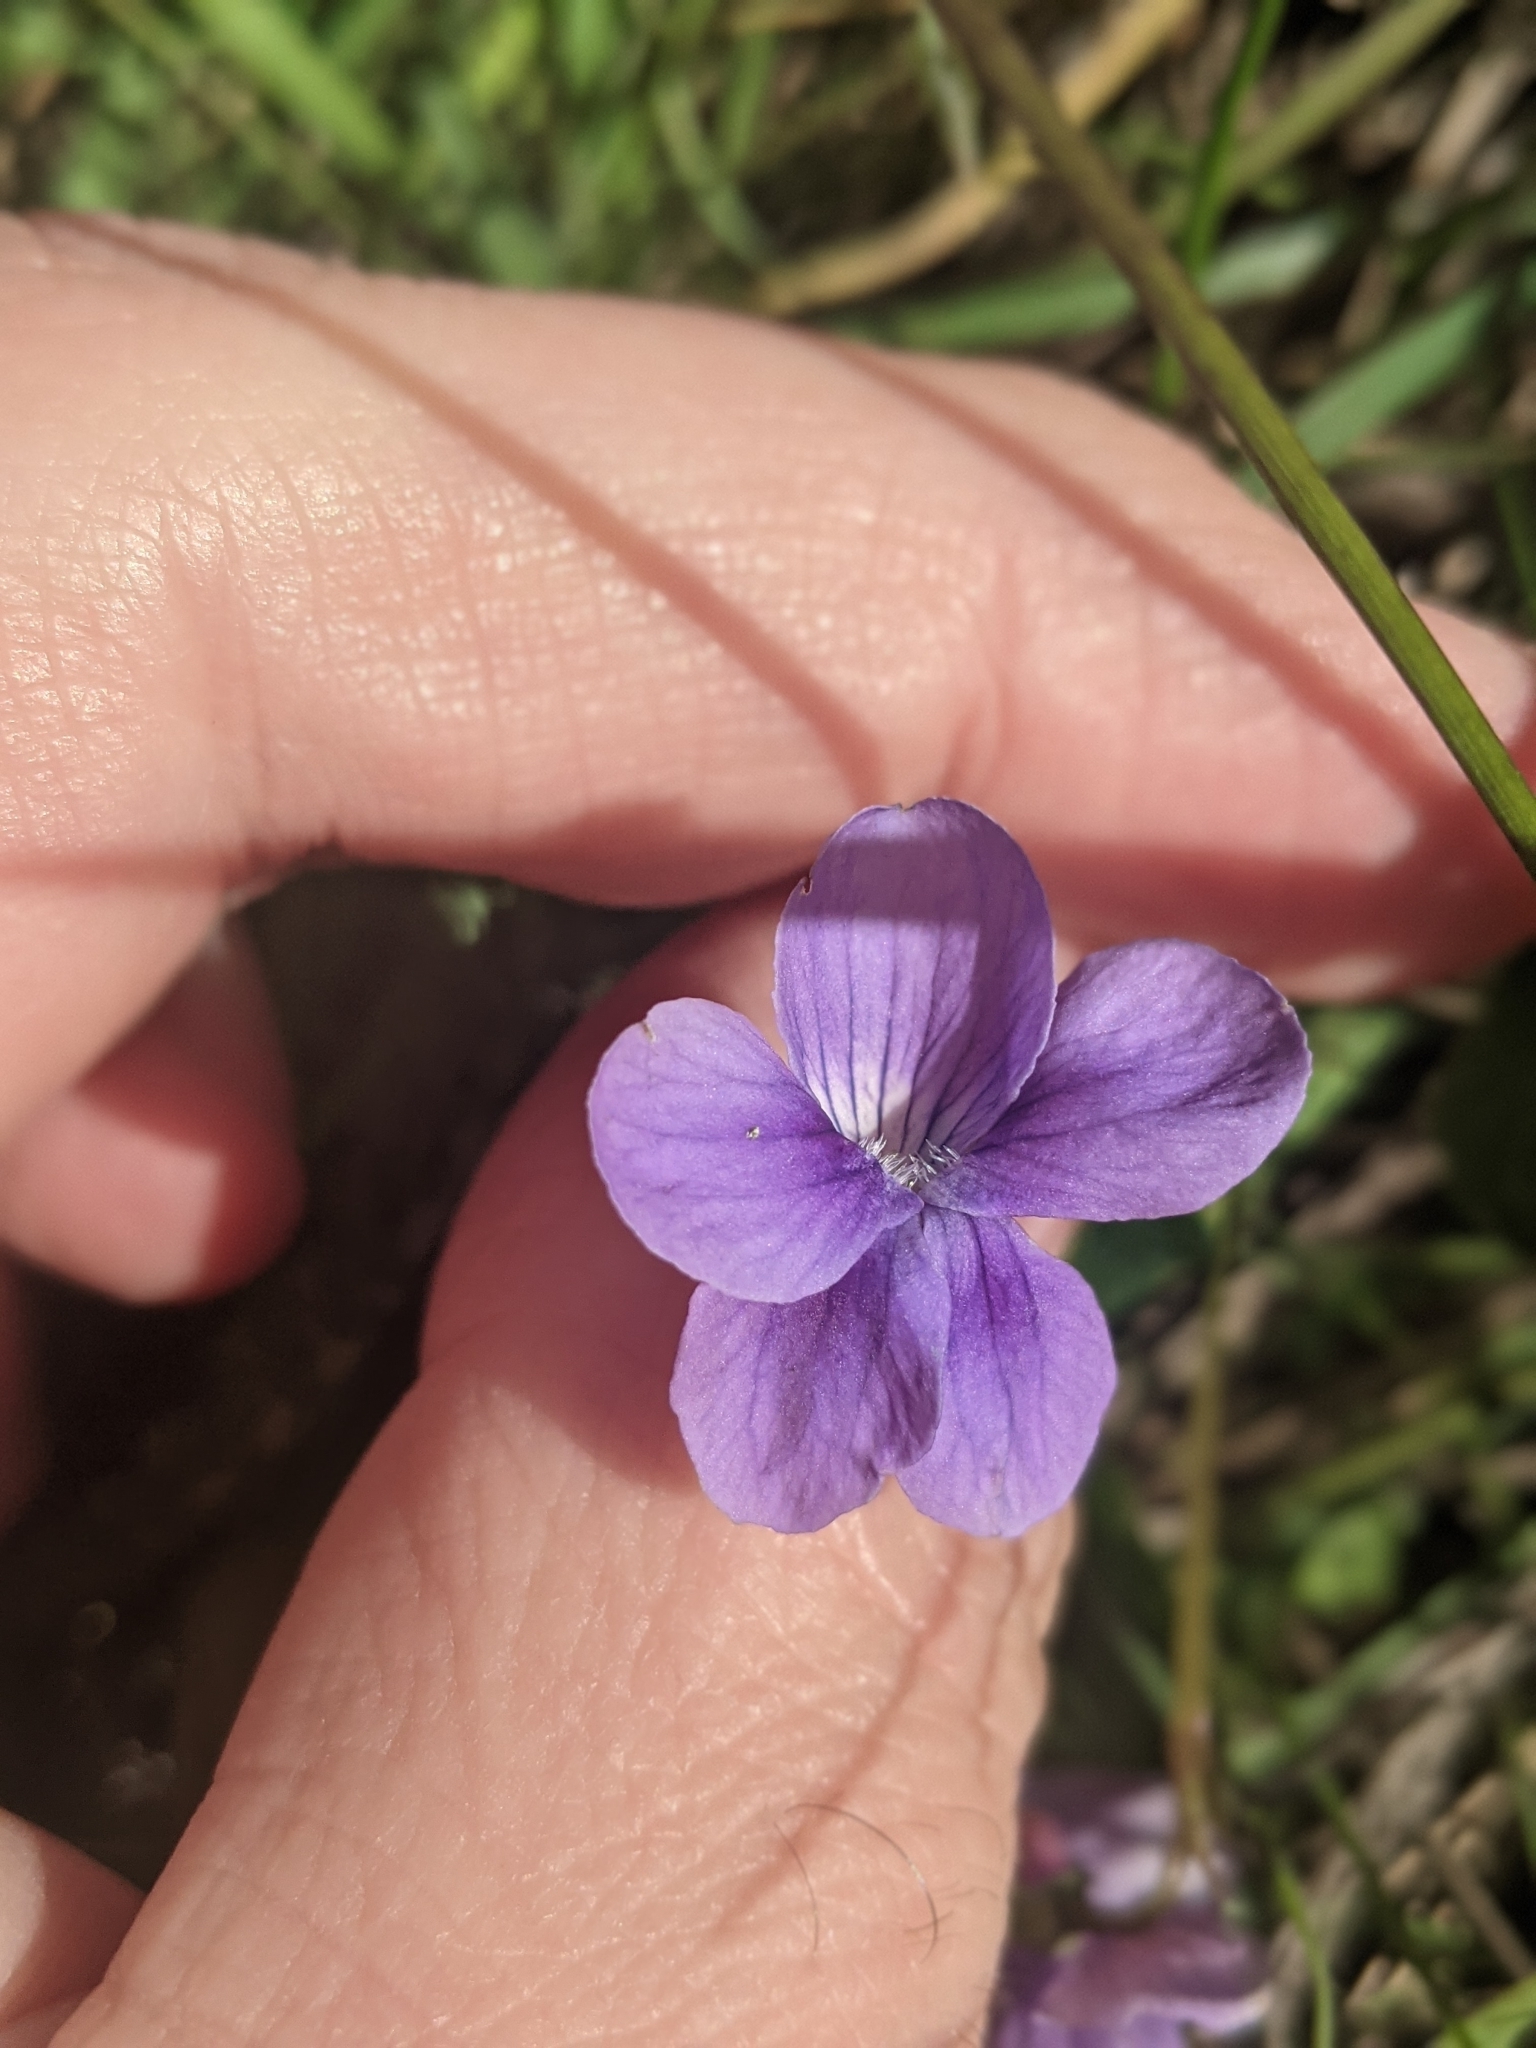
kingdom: Plantae
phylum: Tracheophyta
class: Magnoliopsida
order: Malpighiales
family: Violaceae
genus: Viola
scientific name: Viola adunca
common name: Sand violet
